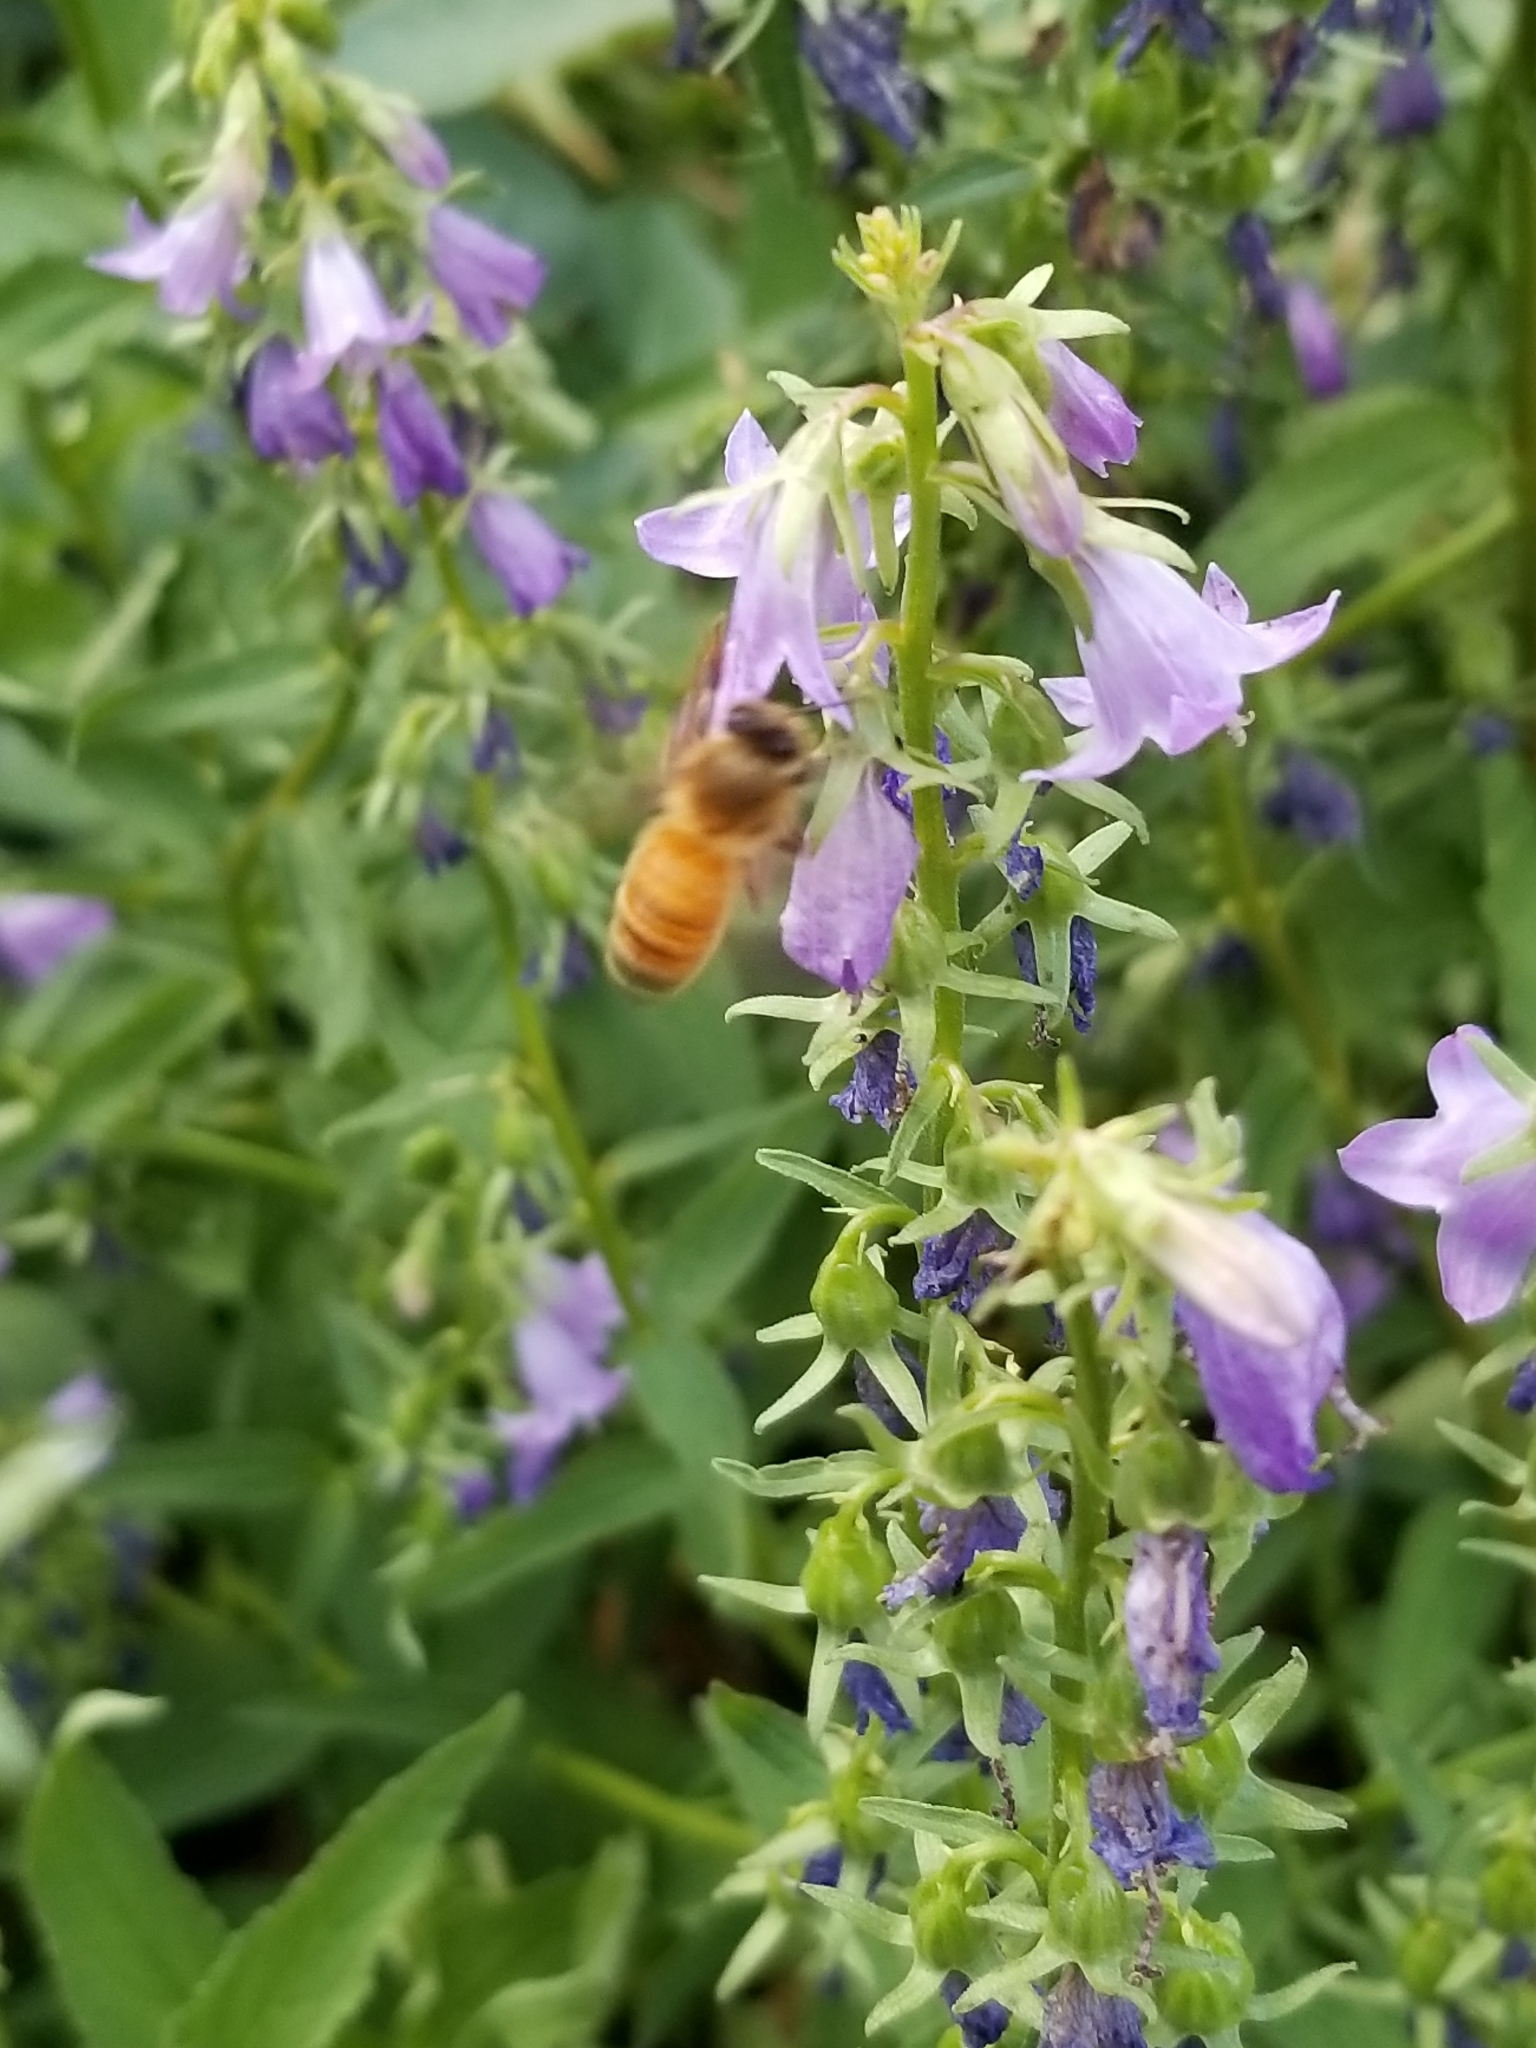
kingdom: Animalia
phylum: Arthropoda
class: Insecta
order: Hymenoptera
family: Apidae
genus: Apis
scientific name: Apis mellifera
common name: Honey bee
